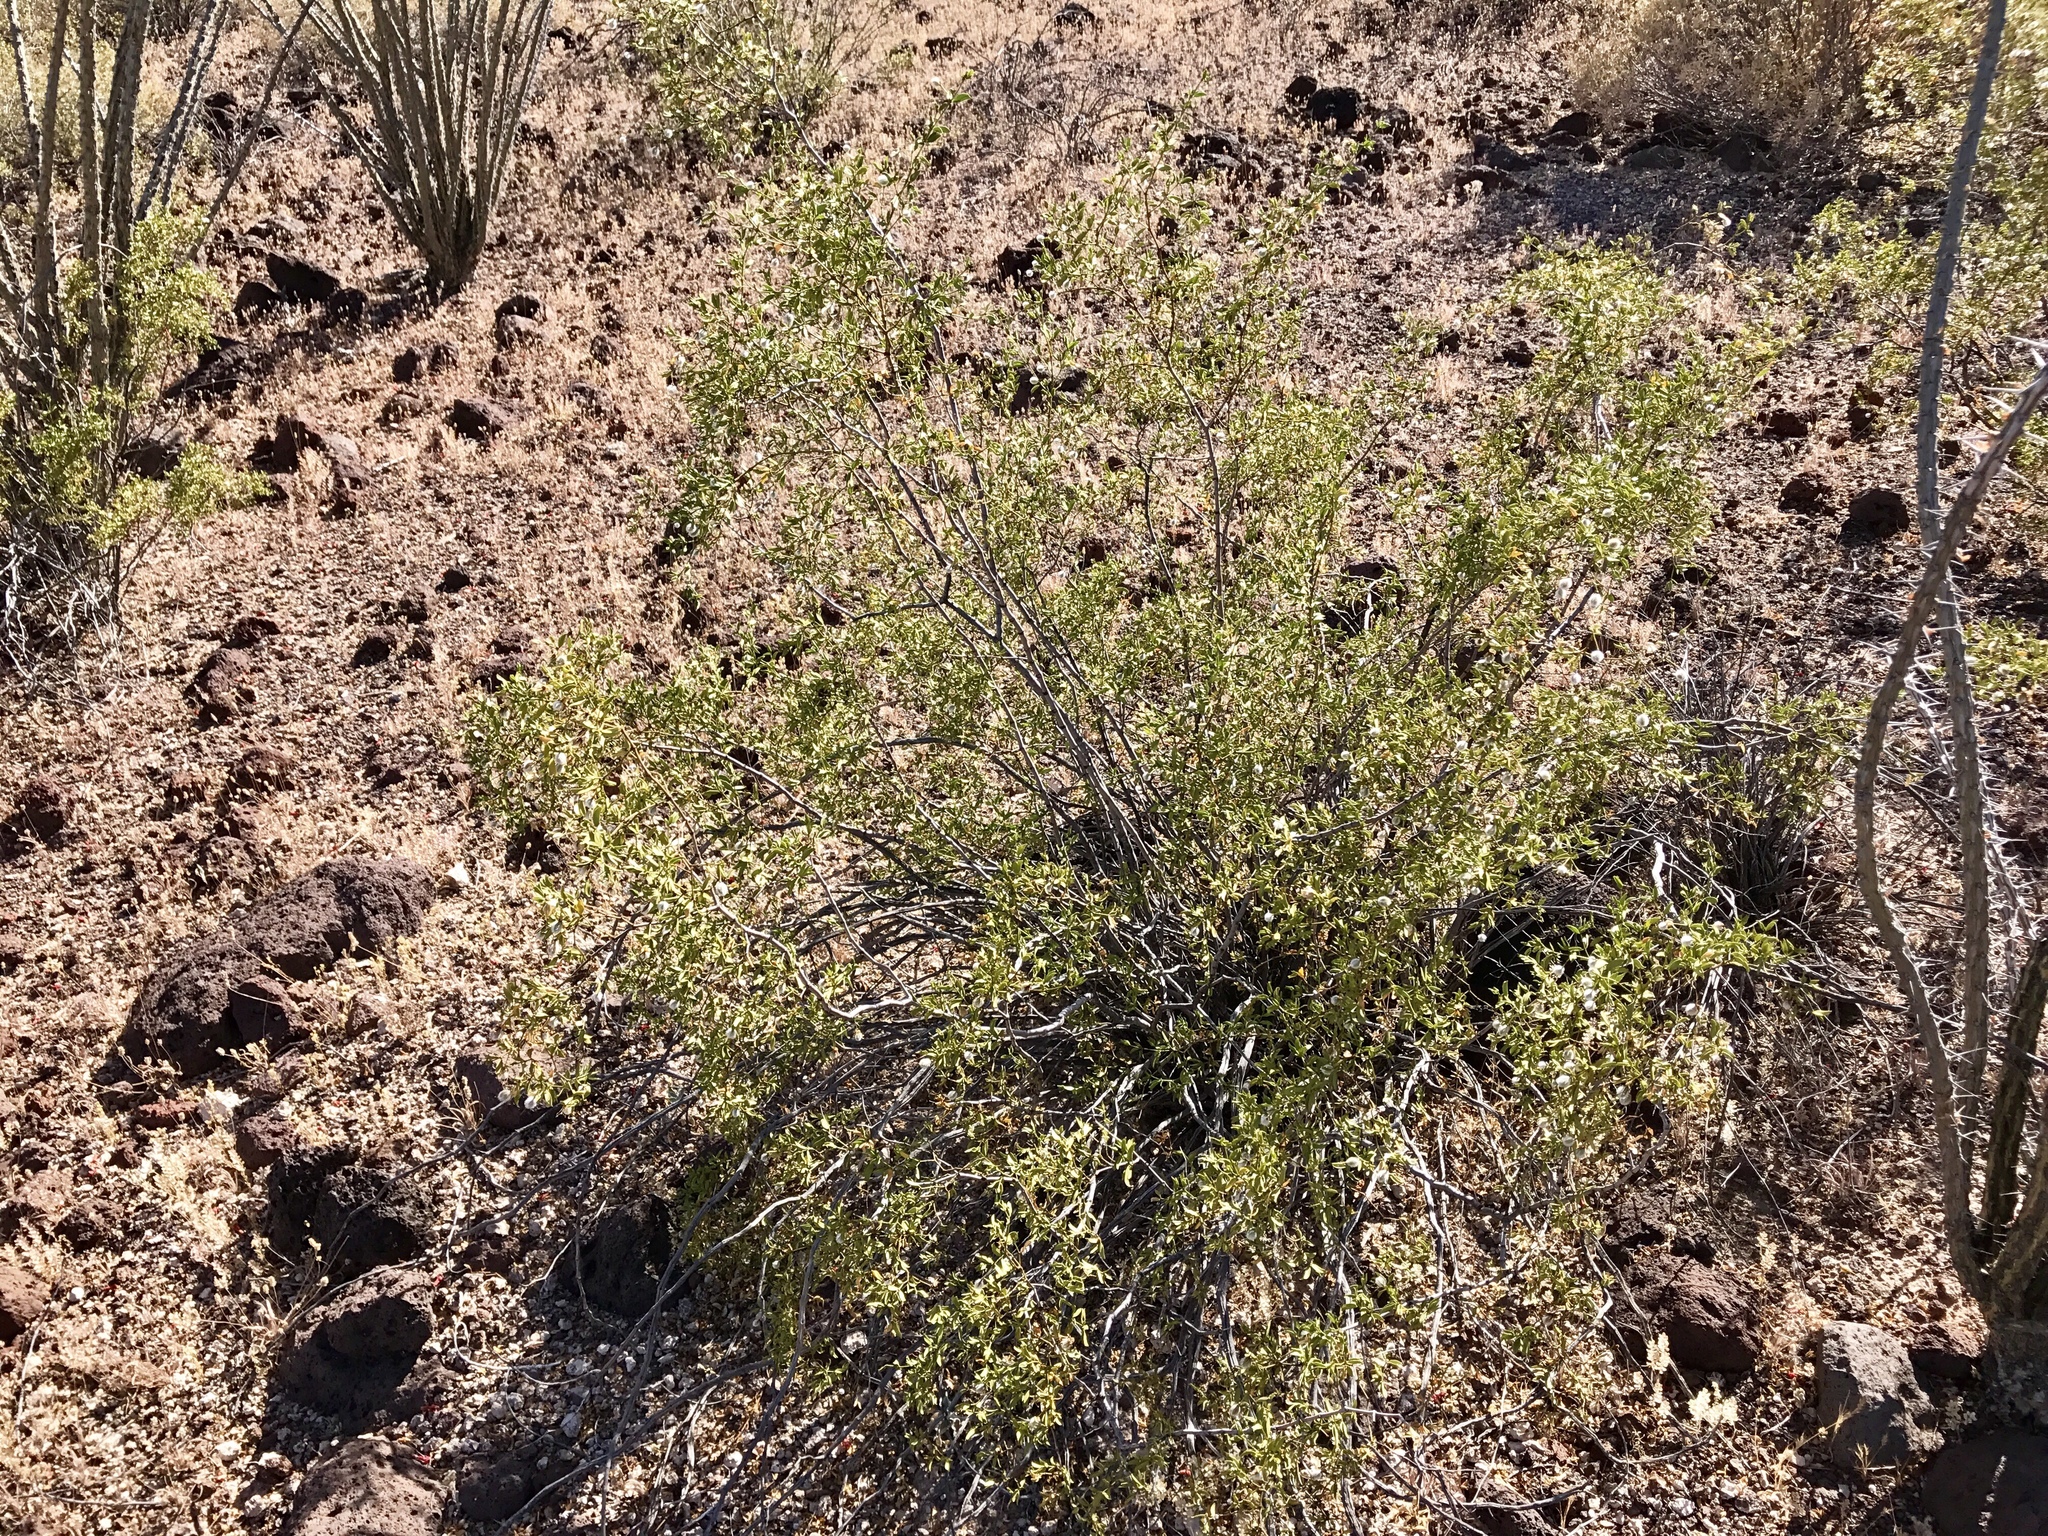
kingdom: Plantae
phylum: Tracheophyta
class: Magnoliopsida
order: Zygophyllales
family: Zygophyllaceae
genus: Larrea
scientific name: Larrea tridentata
